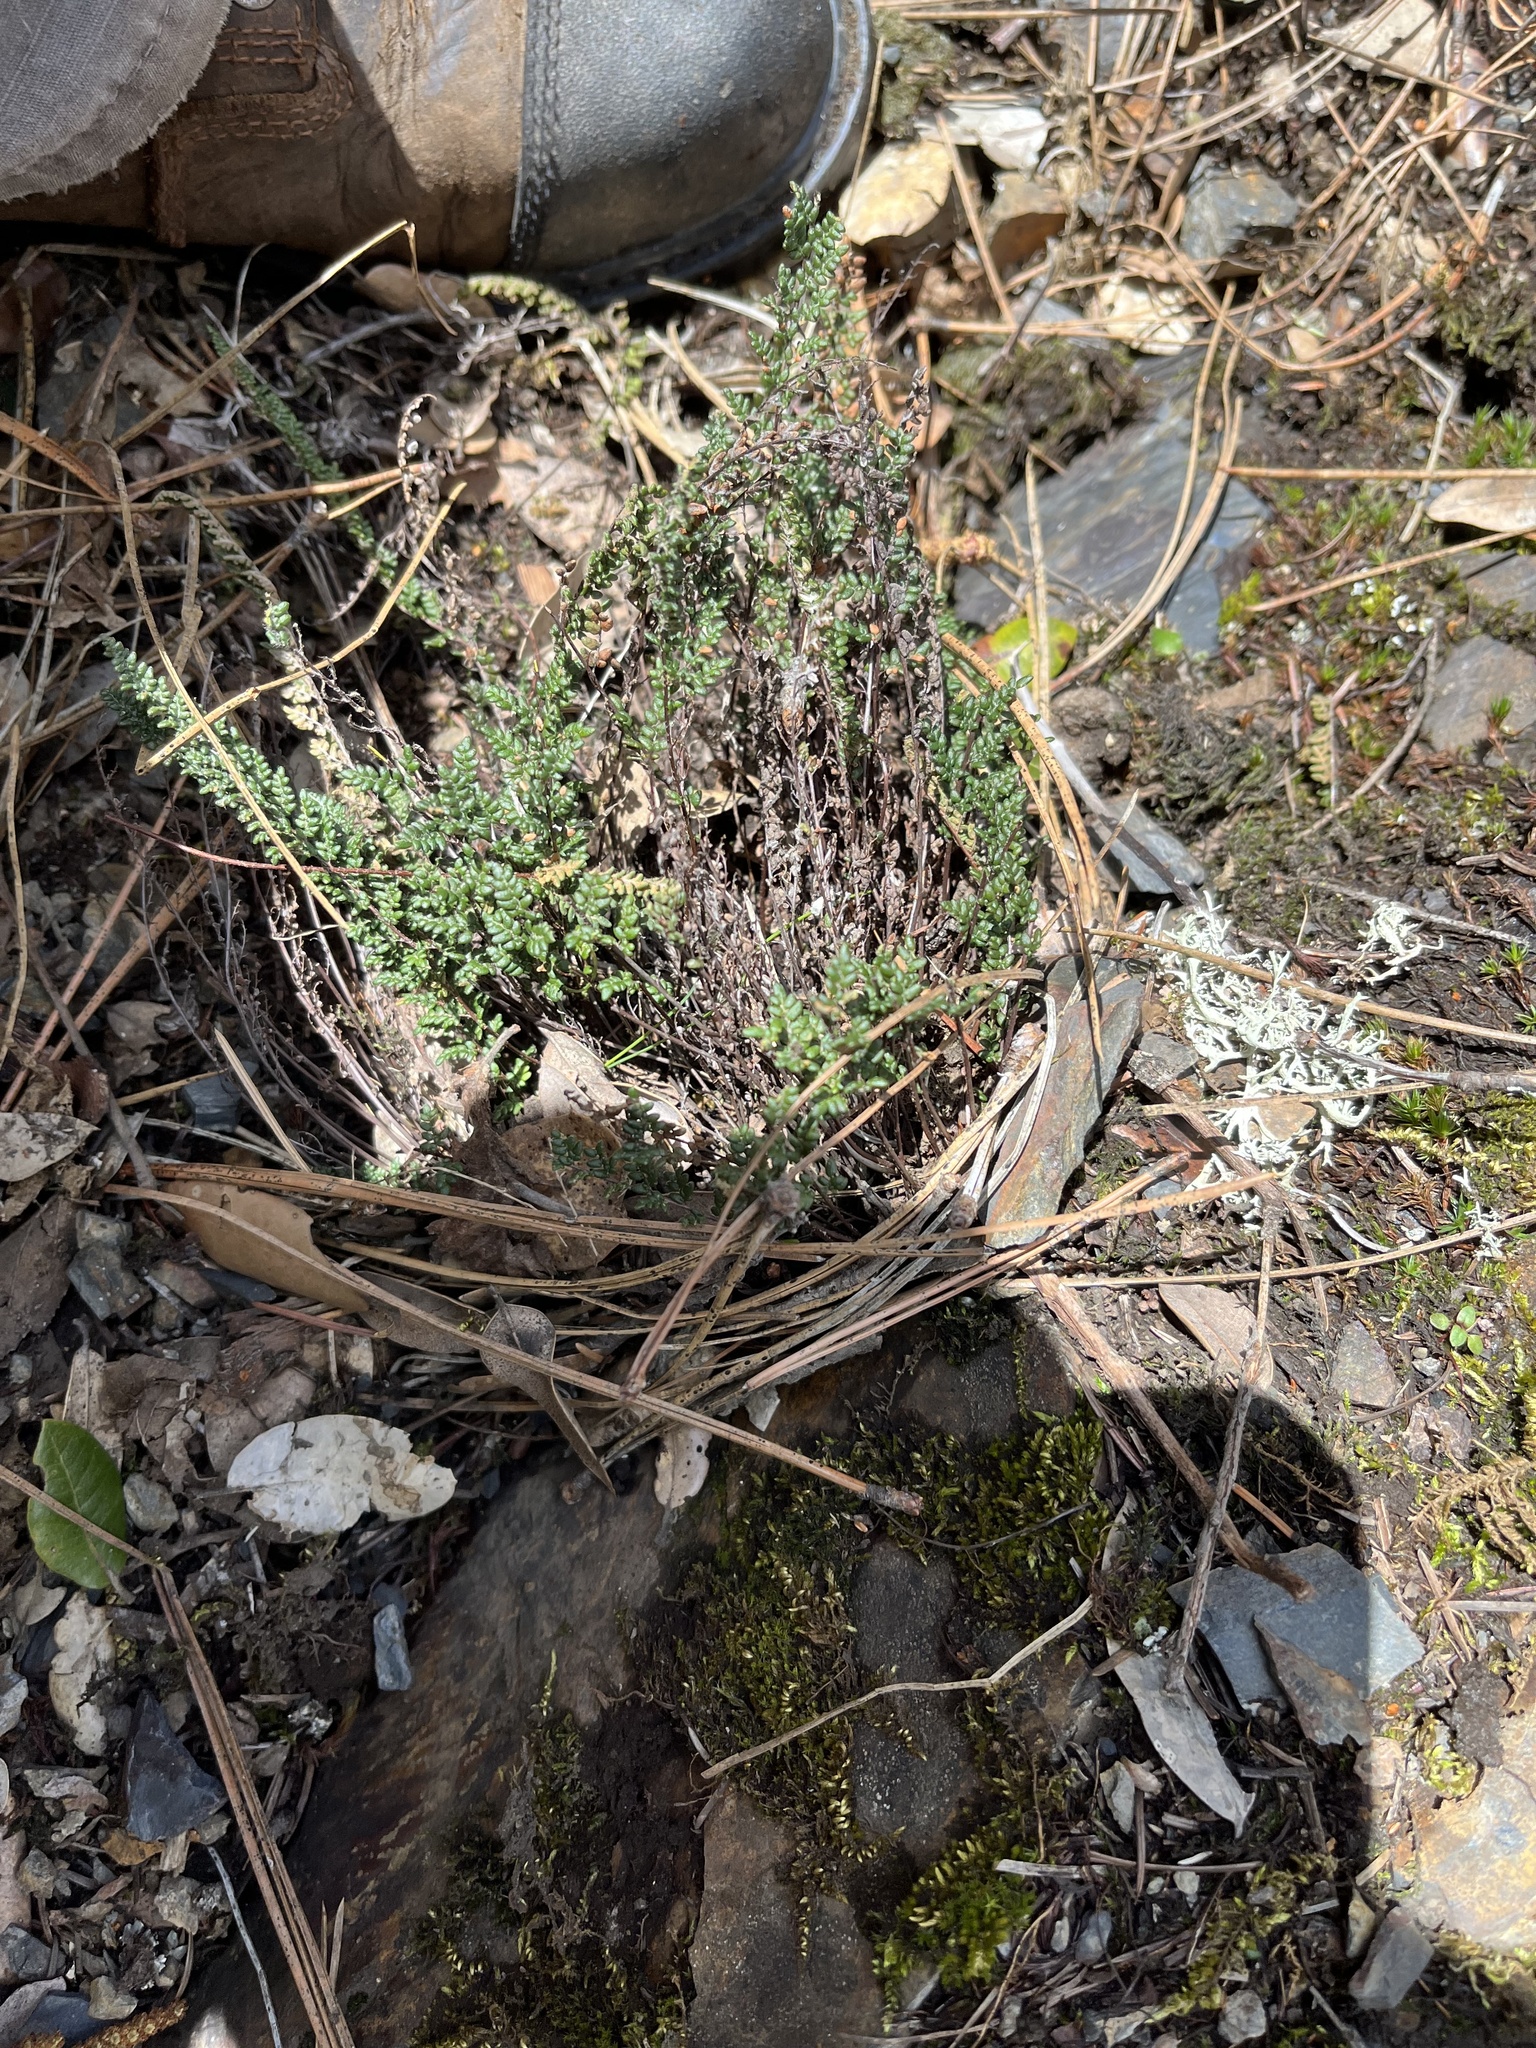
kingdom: Plantae
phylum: Tracheophyta
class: Polypodiopsida
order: Polypodiales
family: Pteridaceae
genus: Myriopteris
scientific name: Myriopteris gracillima
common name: Lace fern
